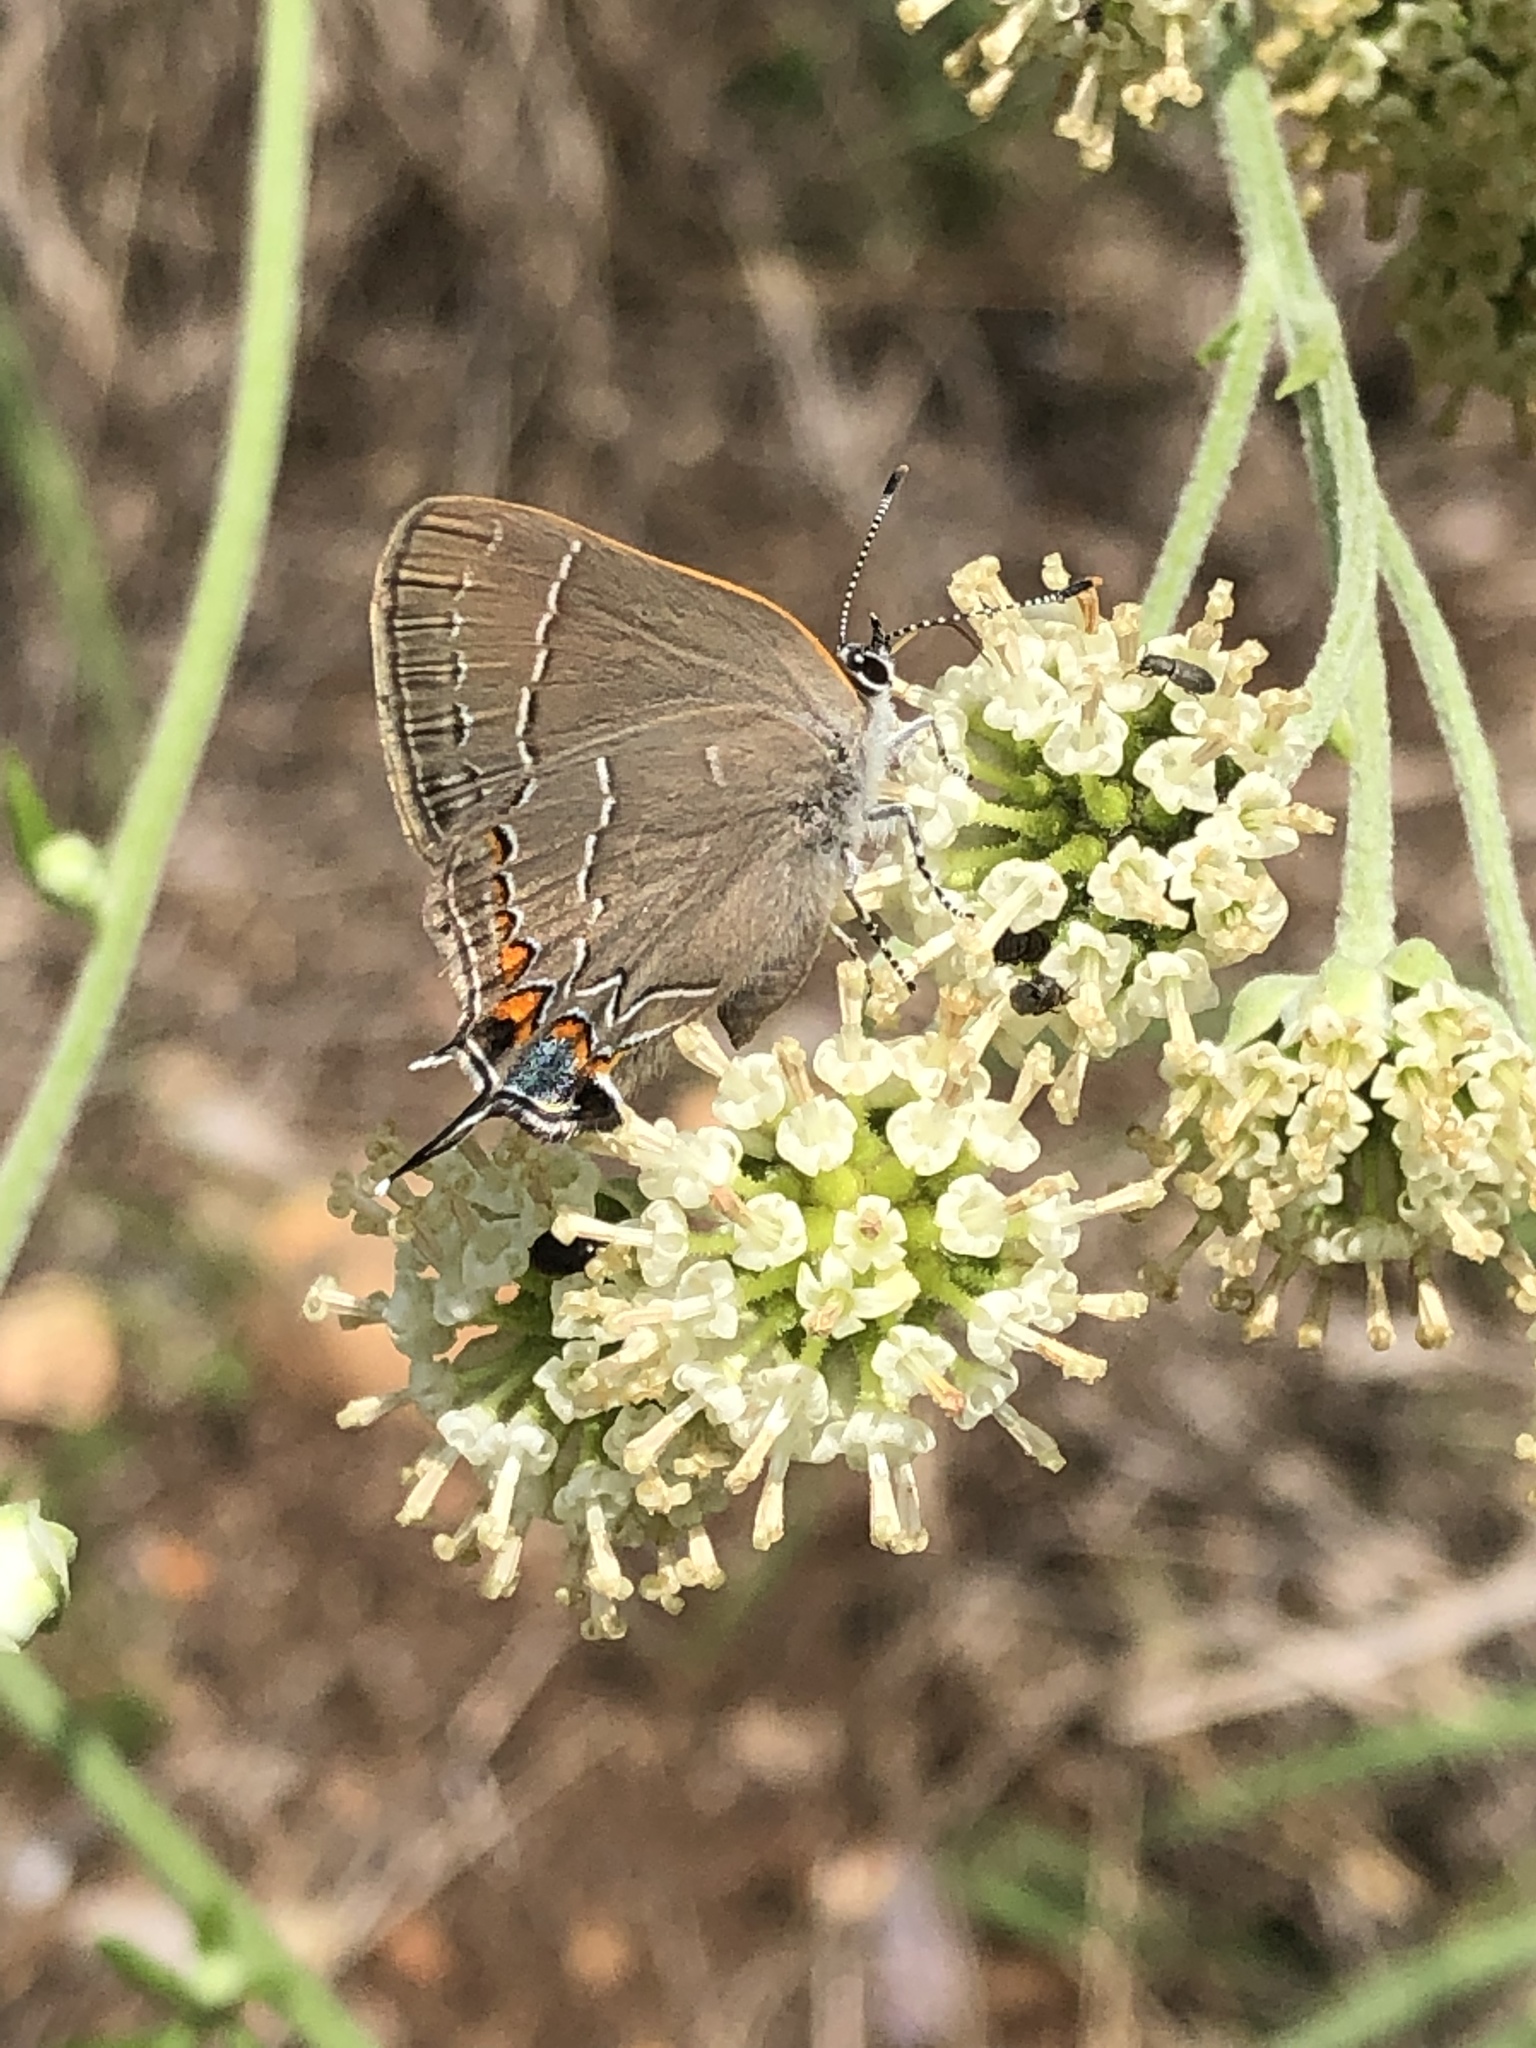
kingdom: Animalia
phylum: Arthropoda
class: Insecta
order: Lepidoptera
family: Lycaenidae
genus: Fixsenia
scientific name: Fixsenia favonius
